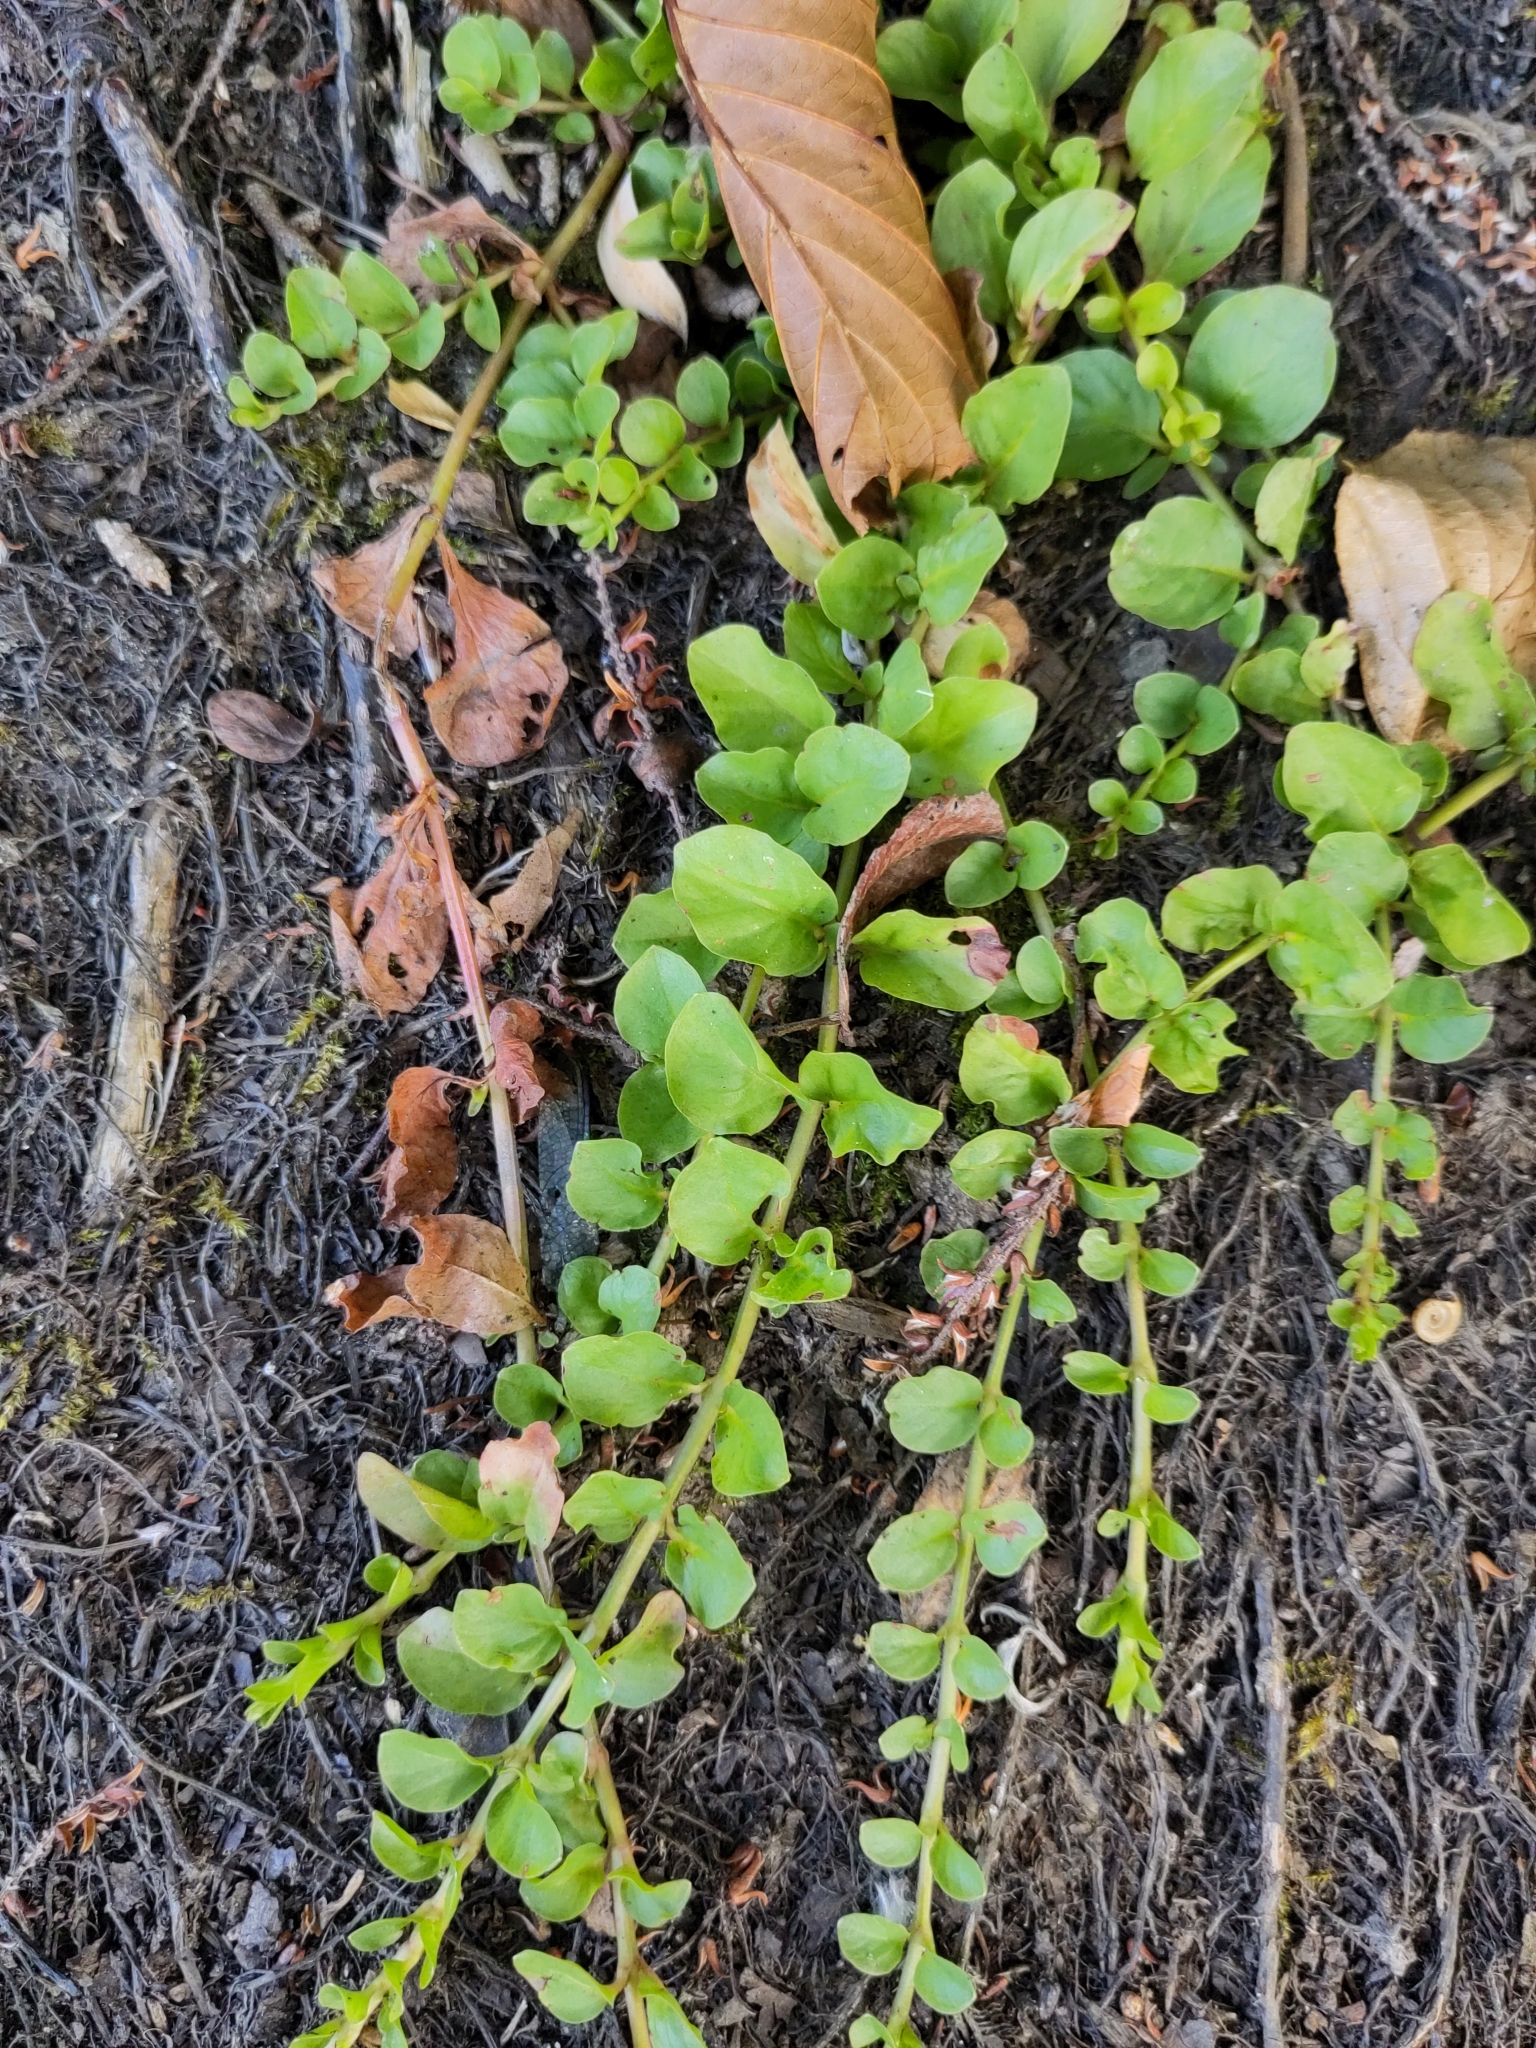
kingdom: Plantae
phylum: Tracheophyta
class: Magnoliopsida
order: Ericales
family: Primulaceae
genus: Lysimachia
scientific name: Lysimachia nummularia
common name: Moneywort
